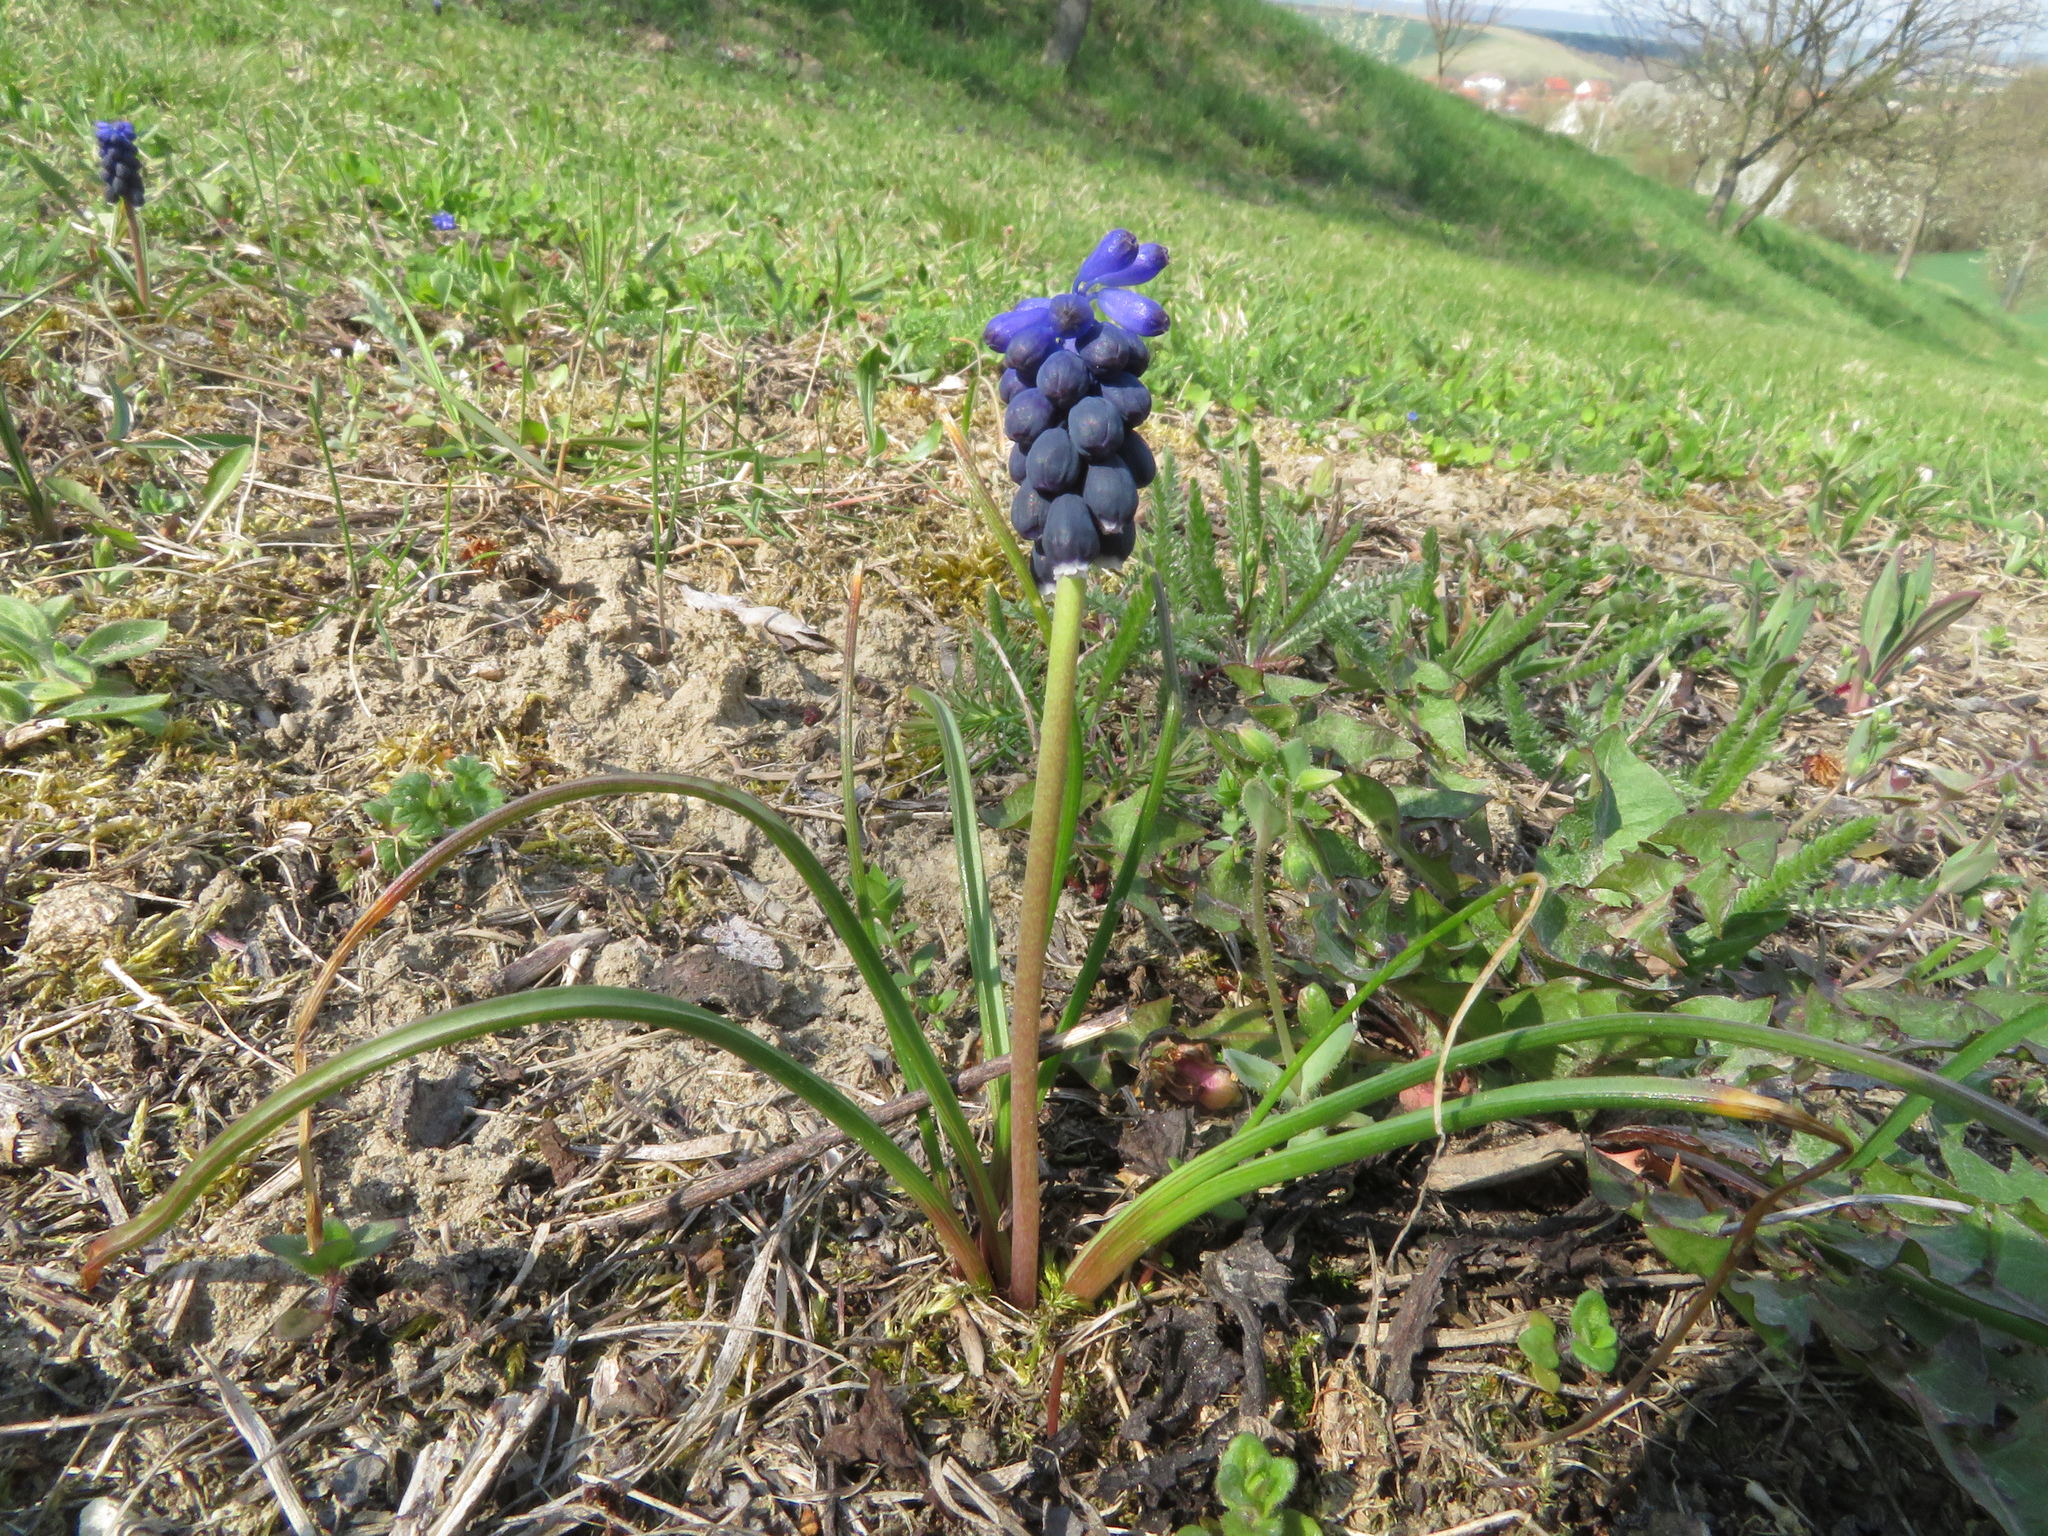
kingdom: Plantae
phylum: Tracheophyta
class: Liliopsida
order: Asparagales
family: Asparagaceae
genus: Muscari
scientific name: Muscari neglectum
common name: Grape-hyacinth
